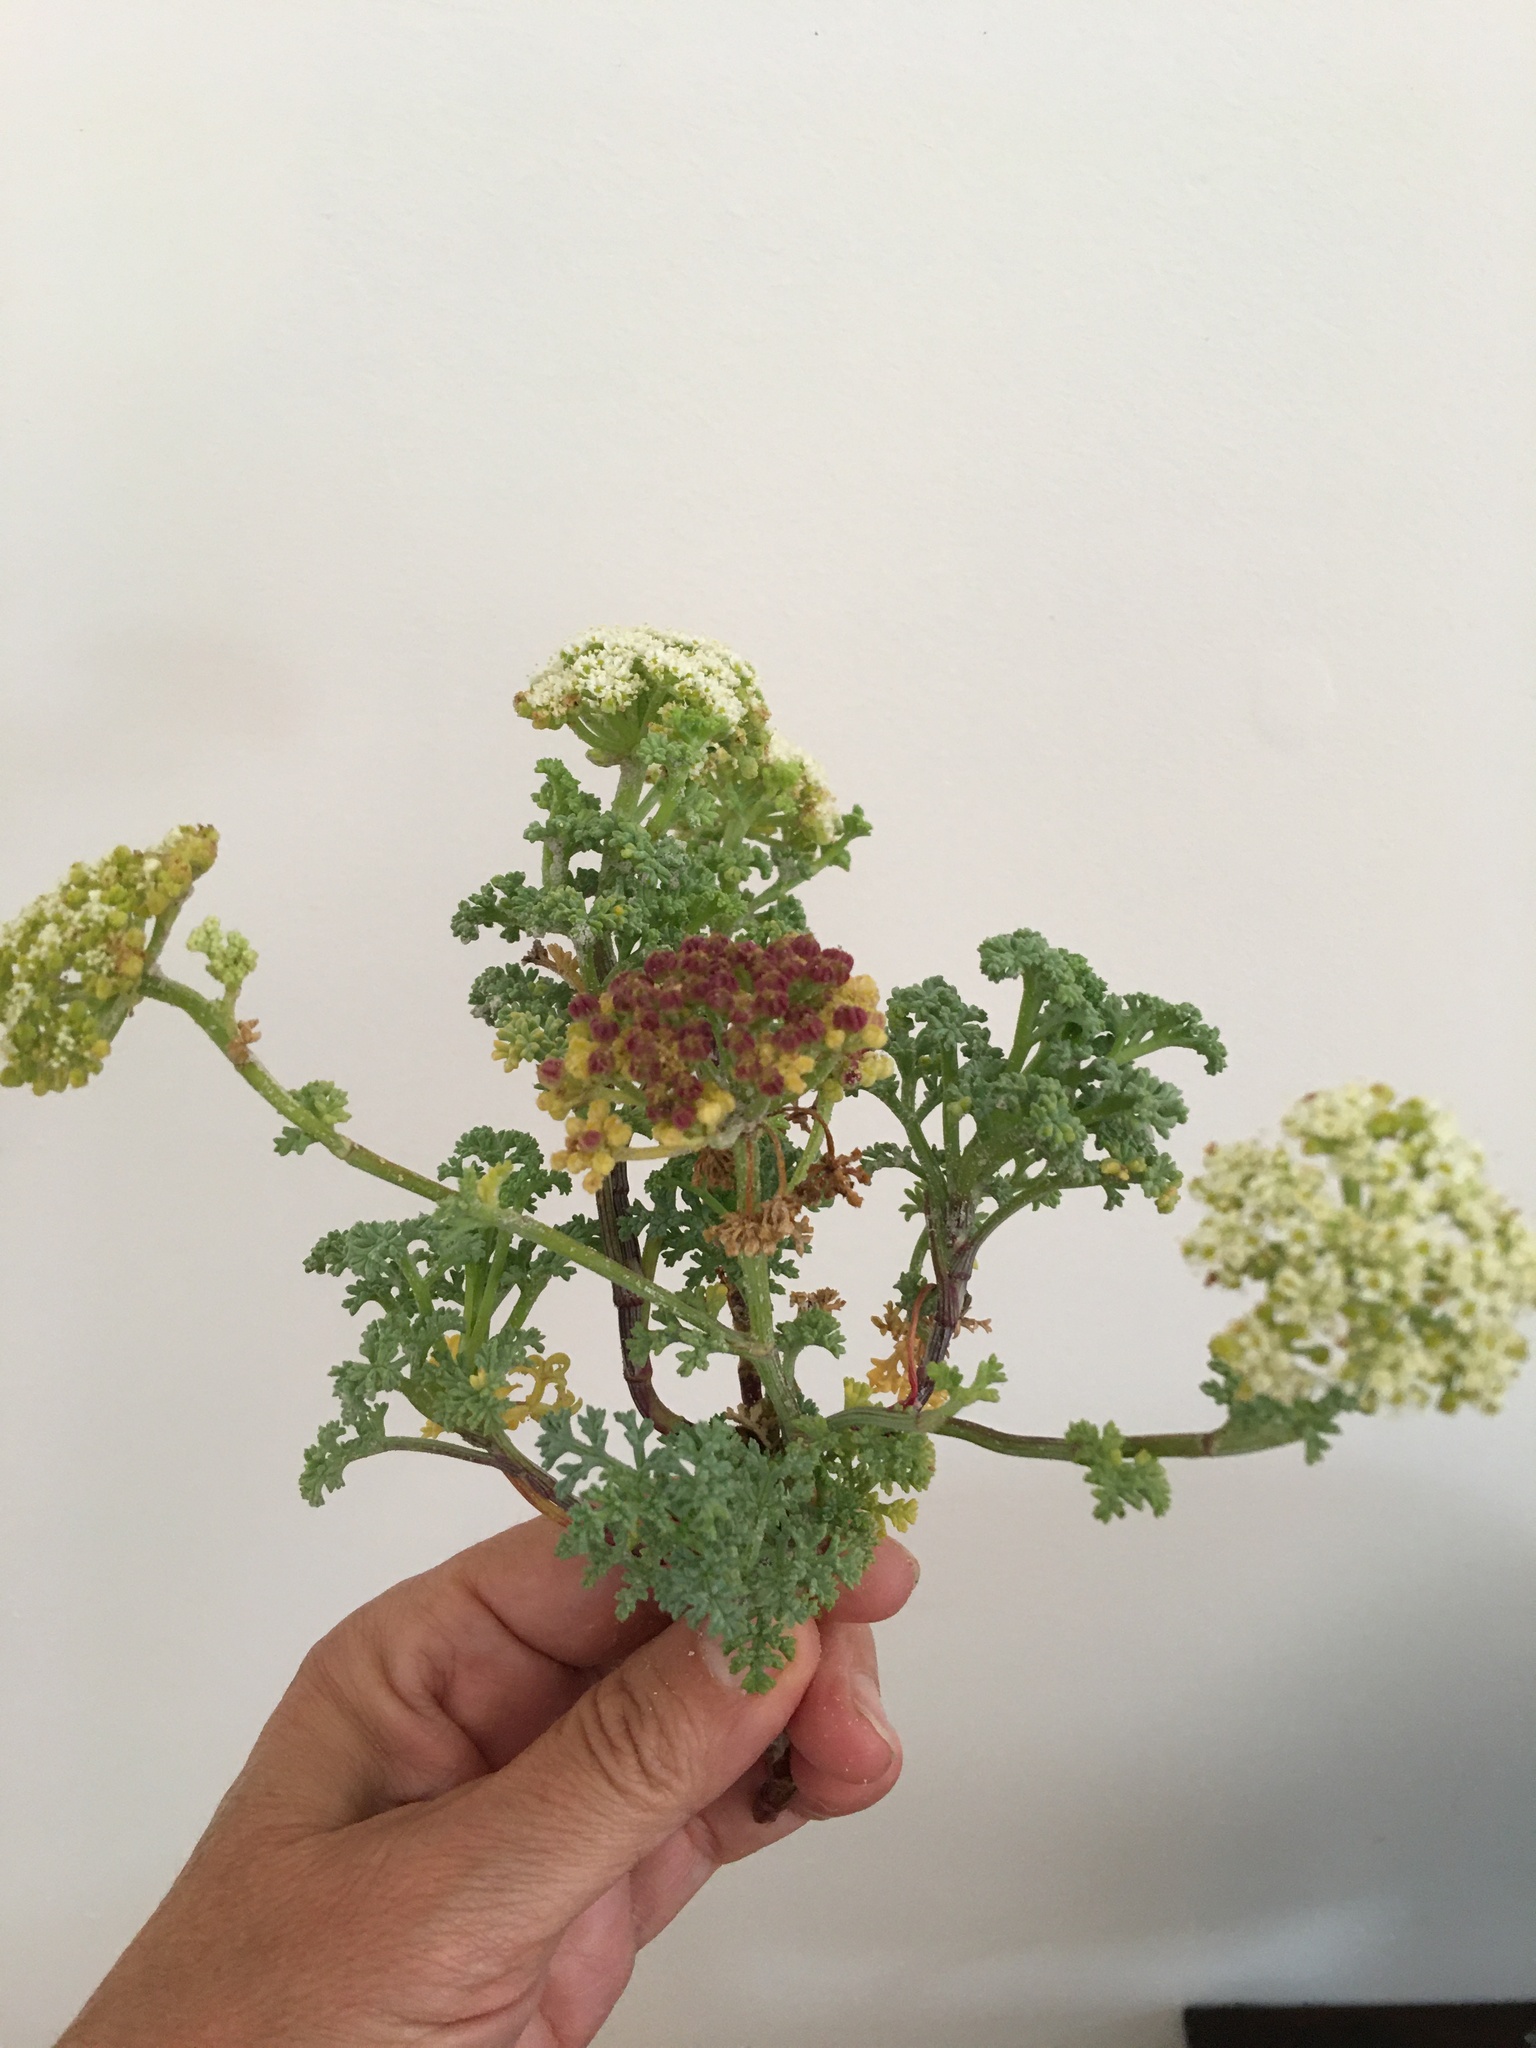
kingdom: Plantae
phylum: Tracheophyta
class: Magnoliopsida
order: Apiales
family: Apiaceae
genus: Dasispermum
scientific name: Dasispermum suffruticosum
